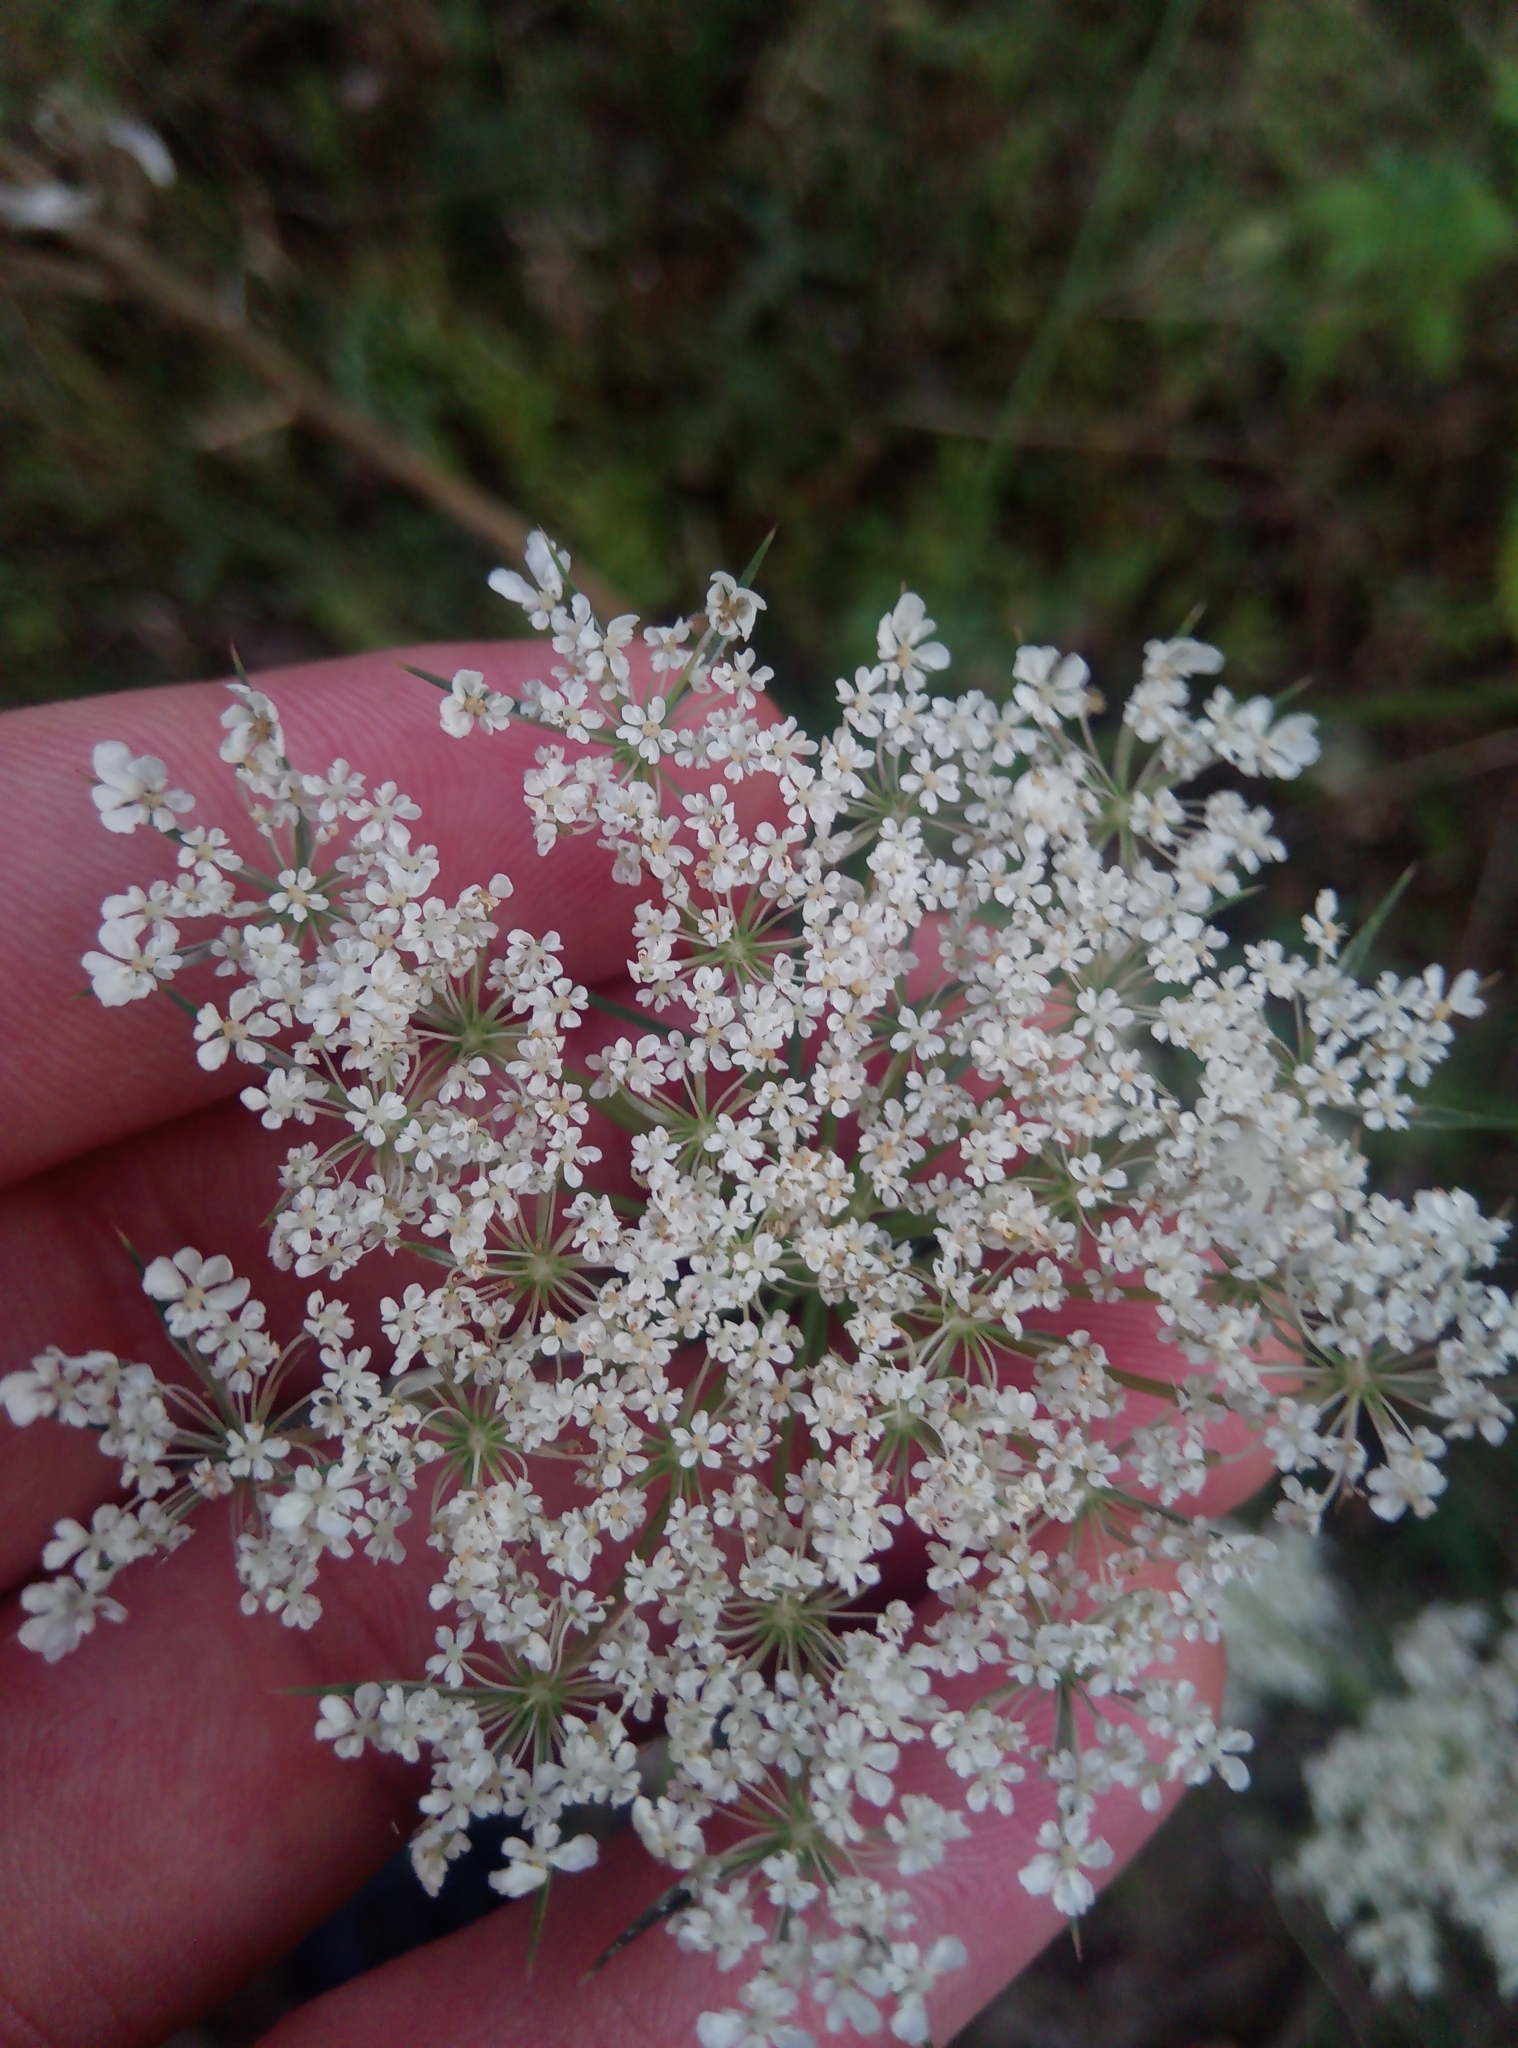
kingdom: Plantae
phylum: Tracheophyta
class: Magnoliopsida
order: Apiales
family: Apiaceae
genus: Daucus
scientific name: Daucus carota
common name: Wild carrot
